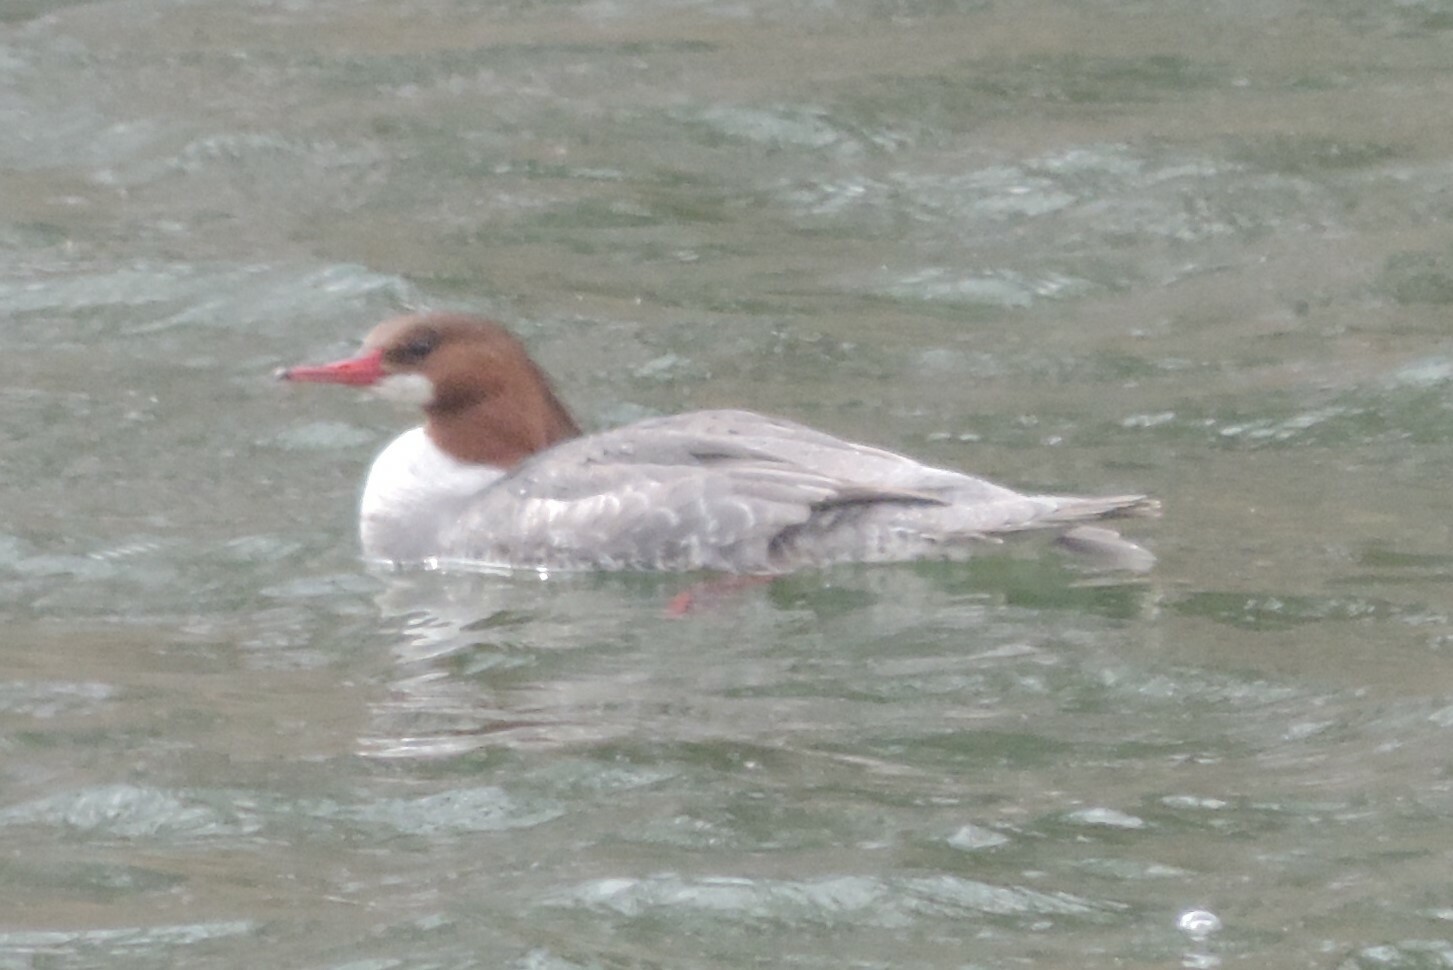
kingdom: Animalia
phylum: Chordata
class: Aves
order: Anseriformes
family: Anatidae
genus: Mergus
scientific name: Mergus merganser
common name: Common merganser
